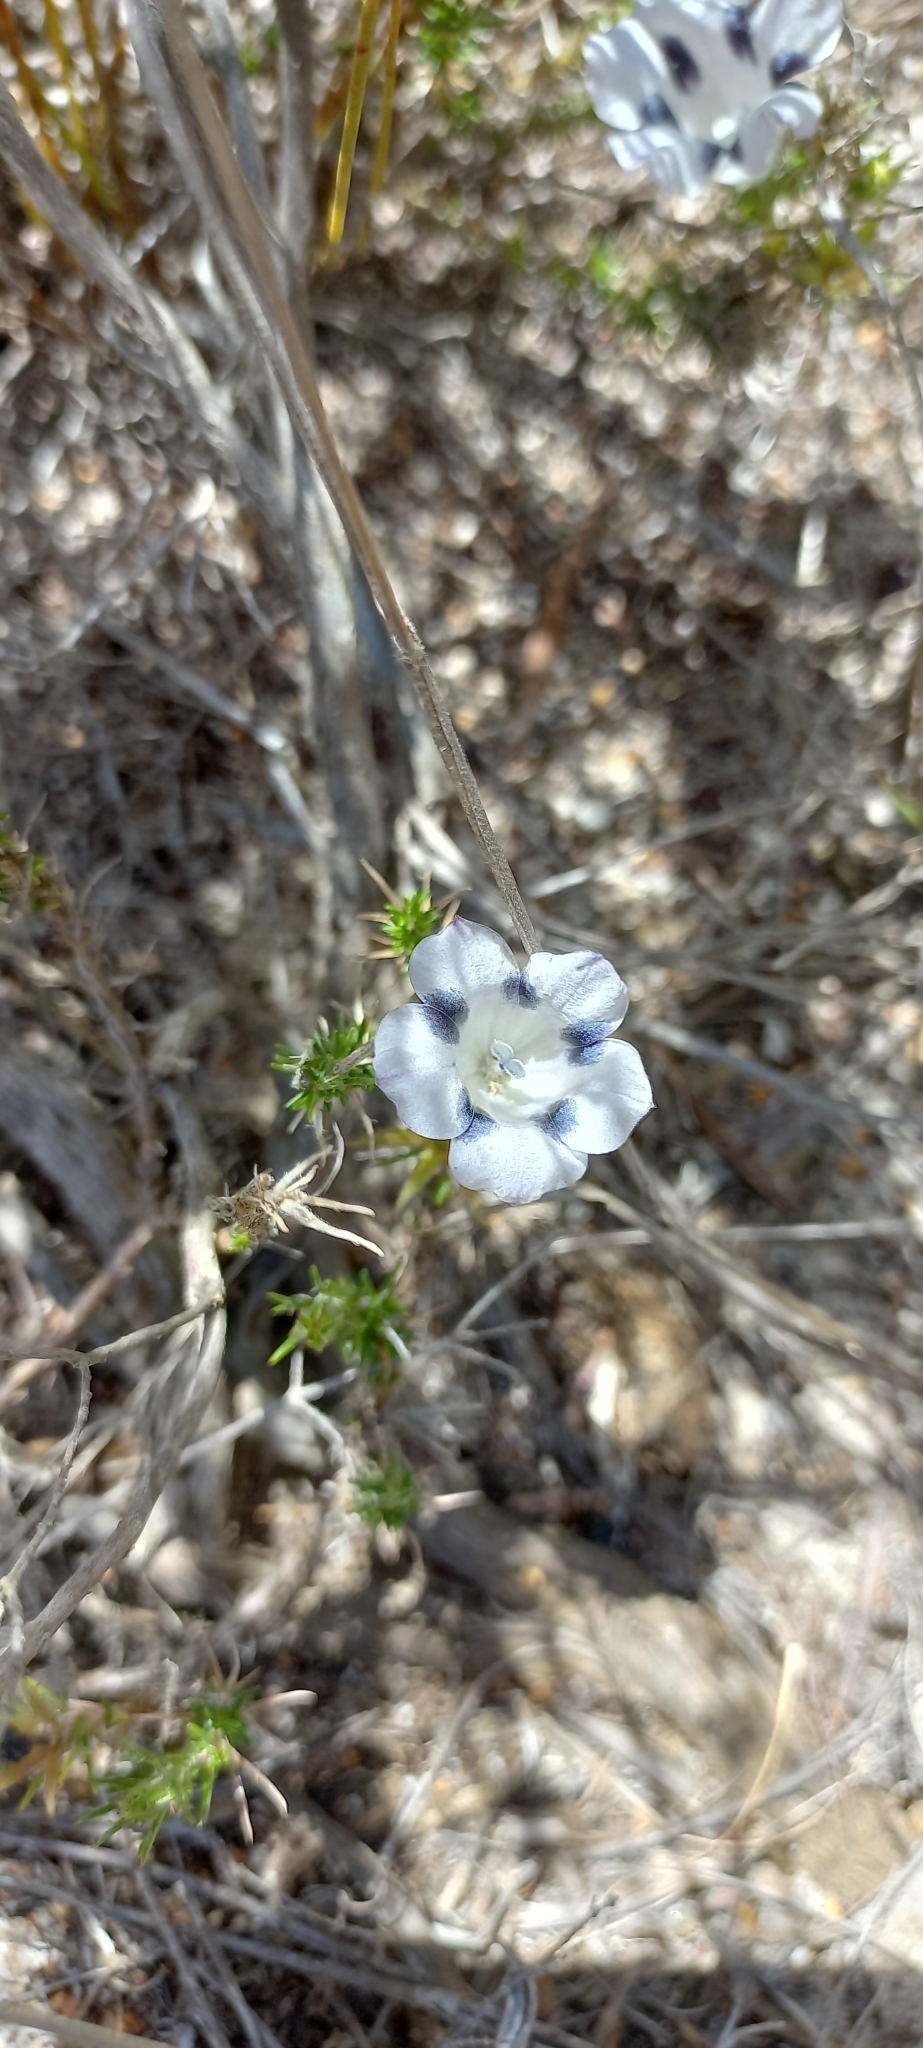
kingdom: Plantae
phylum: Tracheophyta
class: Magnoliopsida
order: Asterales
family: Campanulaceae
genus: Roella
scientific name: Roella maculata
